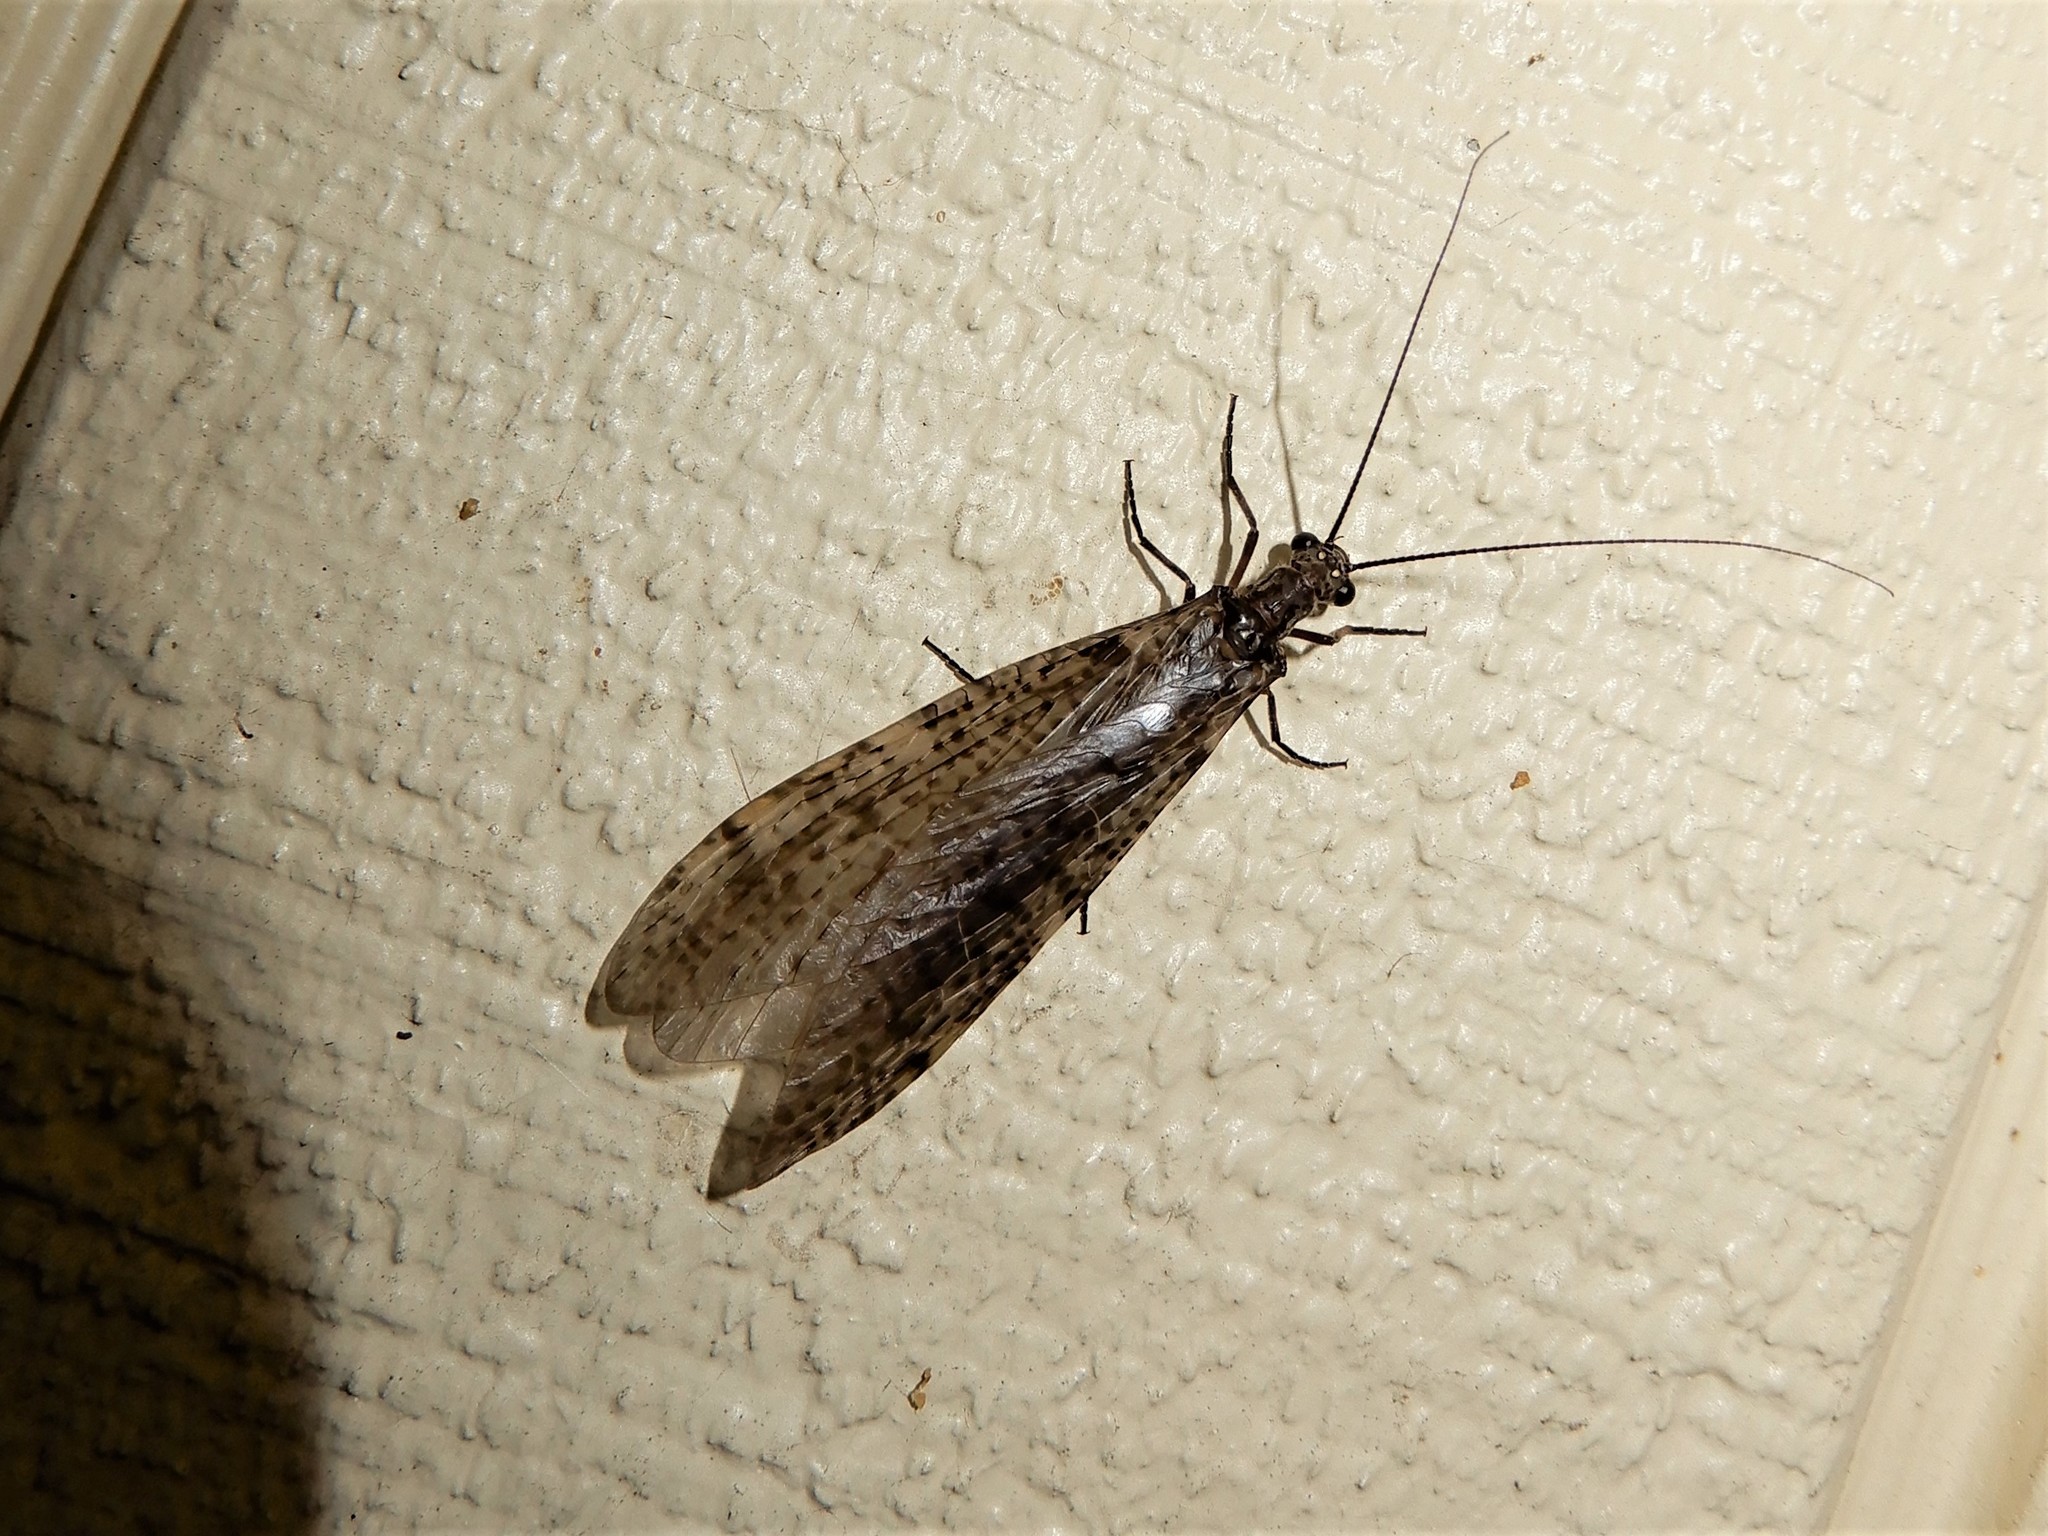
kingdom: Animalia
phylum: Arthropoda
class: Insecta
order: Megaloptera
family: Corydalidae
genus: Archichauliodes
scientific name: Archichauliodes diversus
